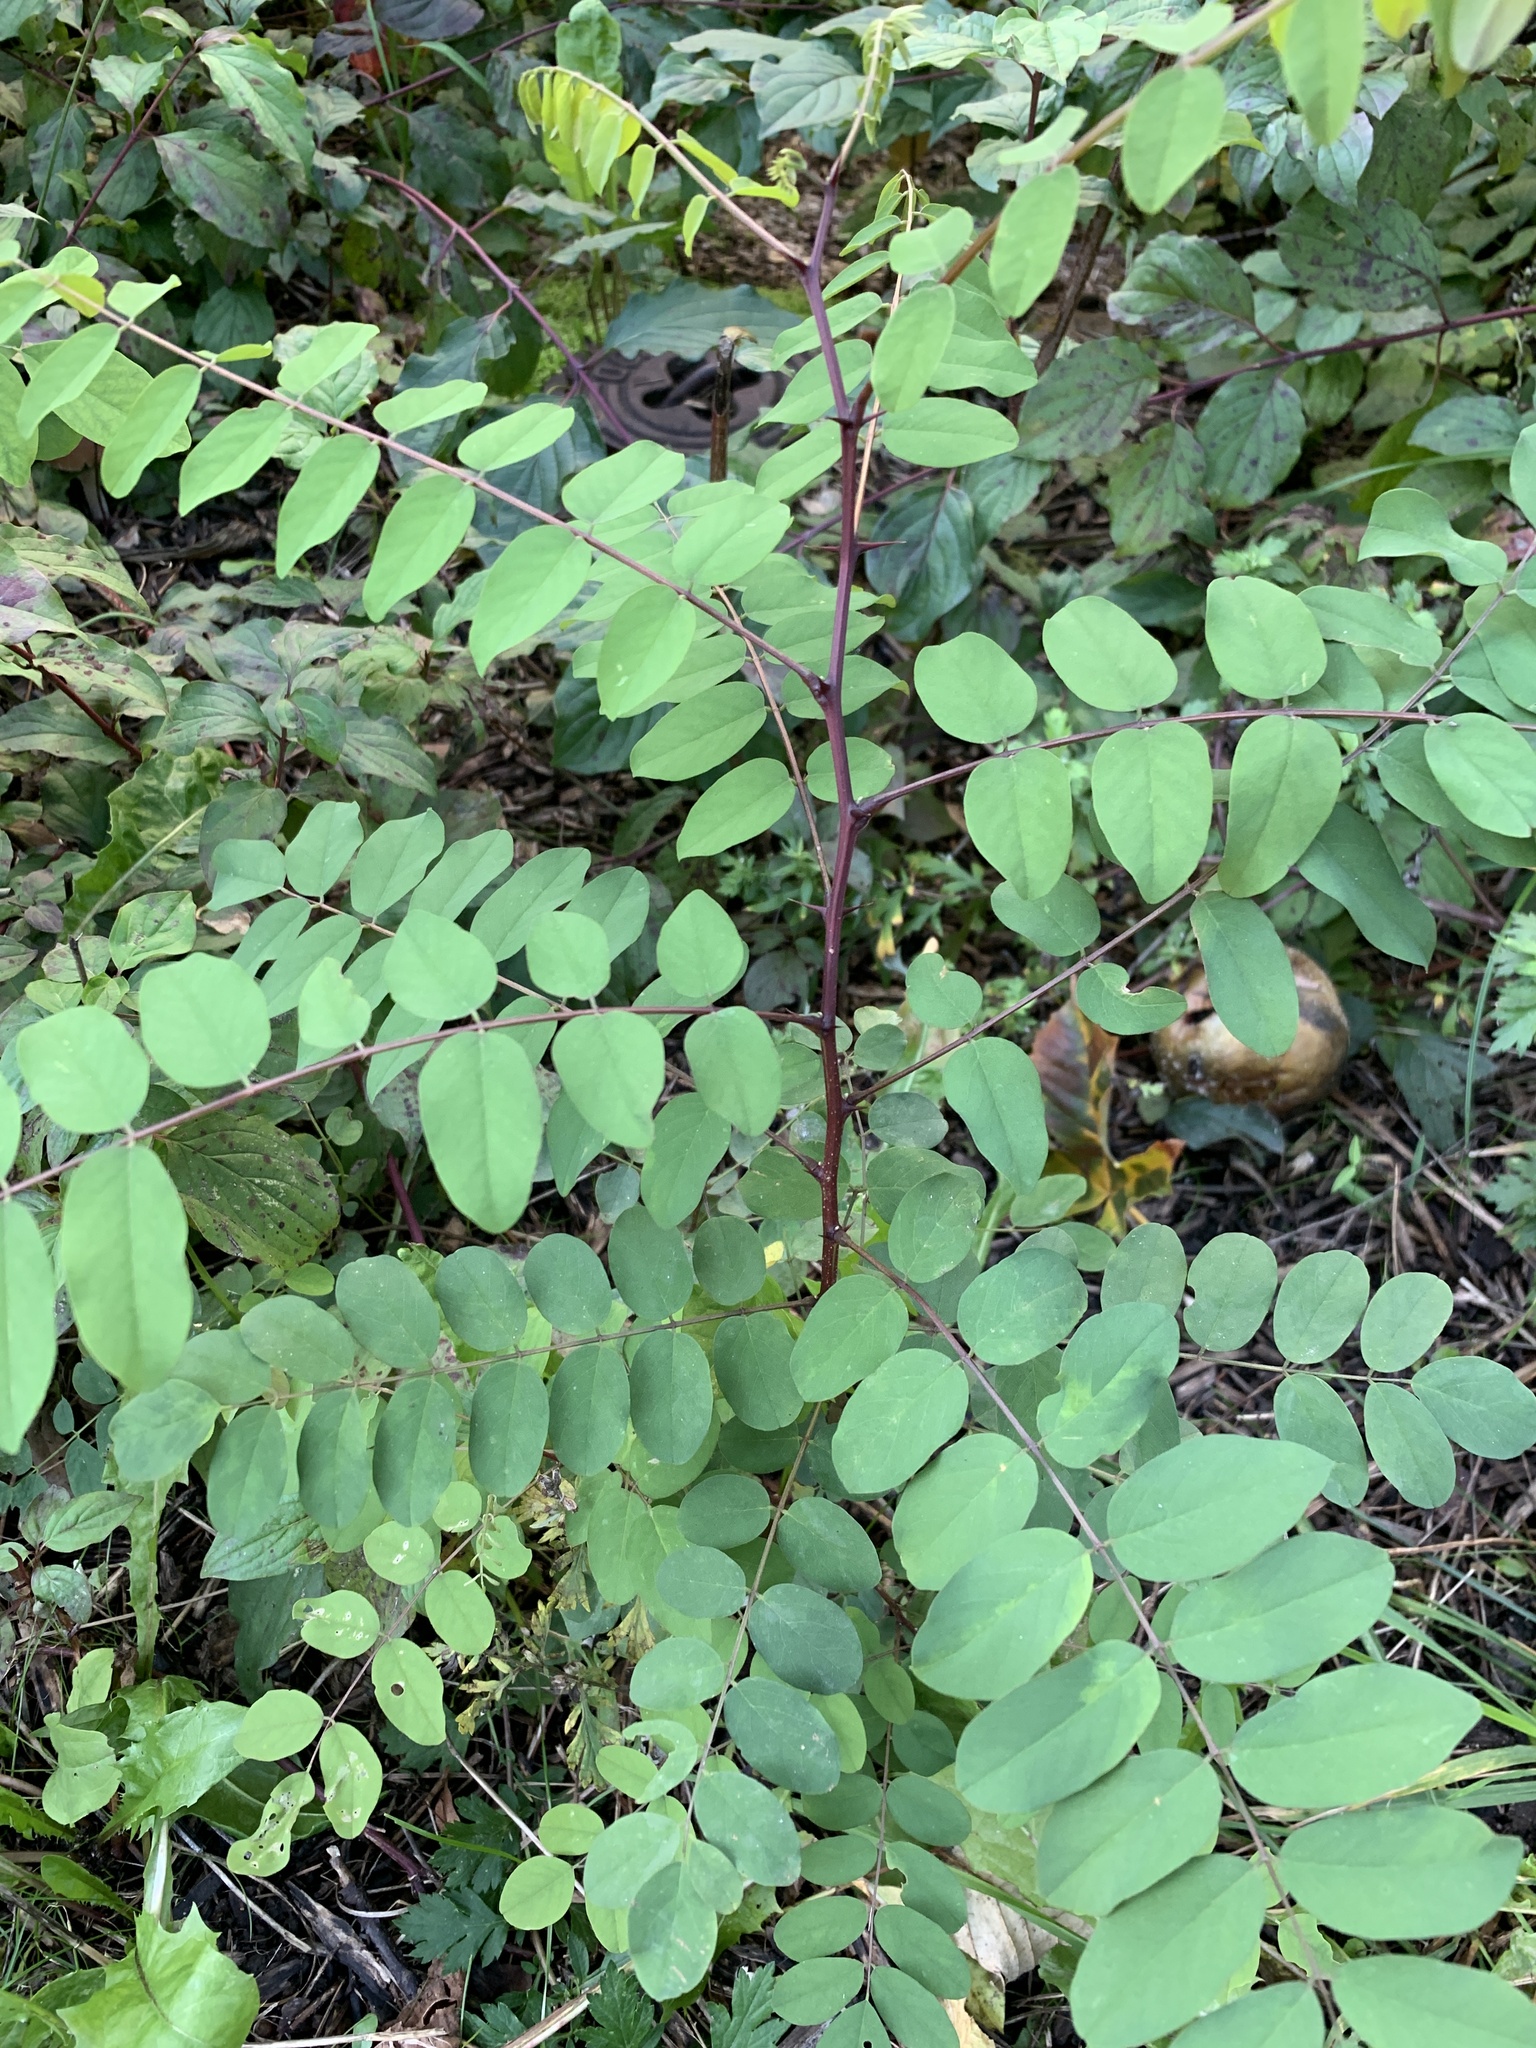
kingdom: Plantae
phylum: Tracheophyta
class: Magnoliopsida
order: Fabales
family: Fabaceae
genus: Robinia
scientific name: Robinia pseudoacacia
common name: Black locust
